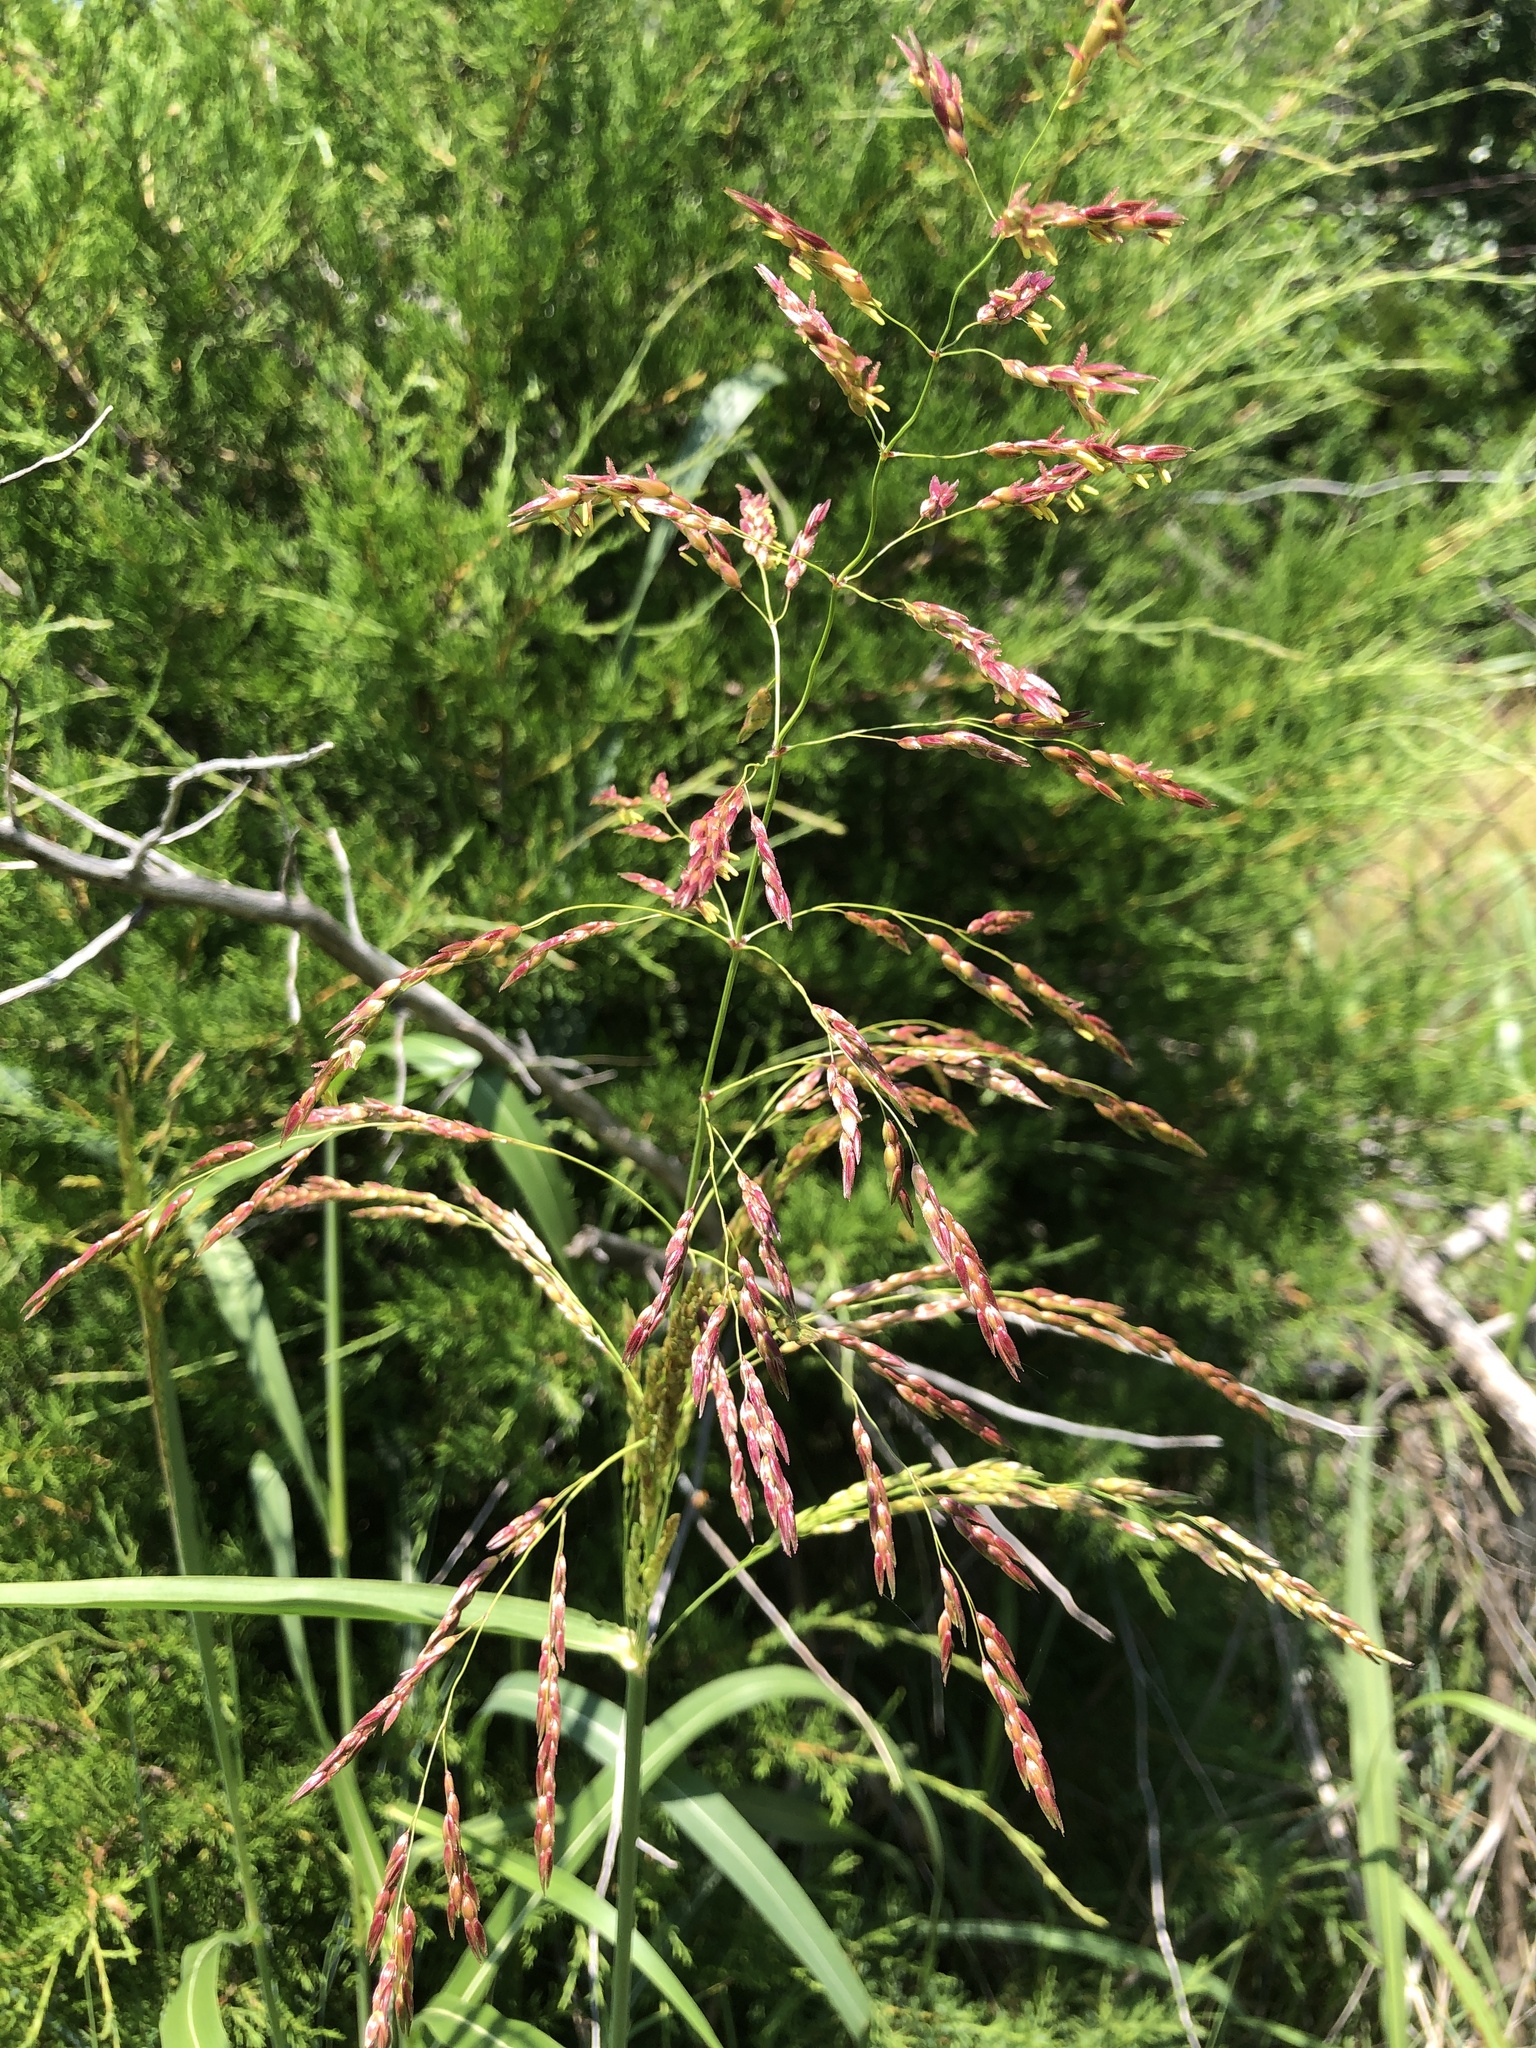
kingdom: Plantae
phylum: Tracheophyta
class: Liliopsida
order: Poales
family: Poaceae
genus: Sorghum
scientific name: Sorghum halepense
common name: Johnson-grass
